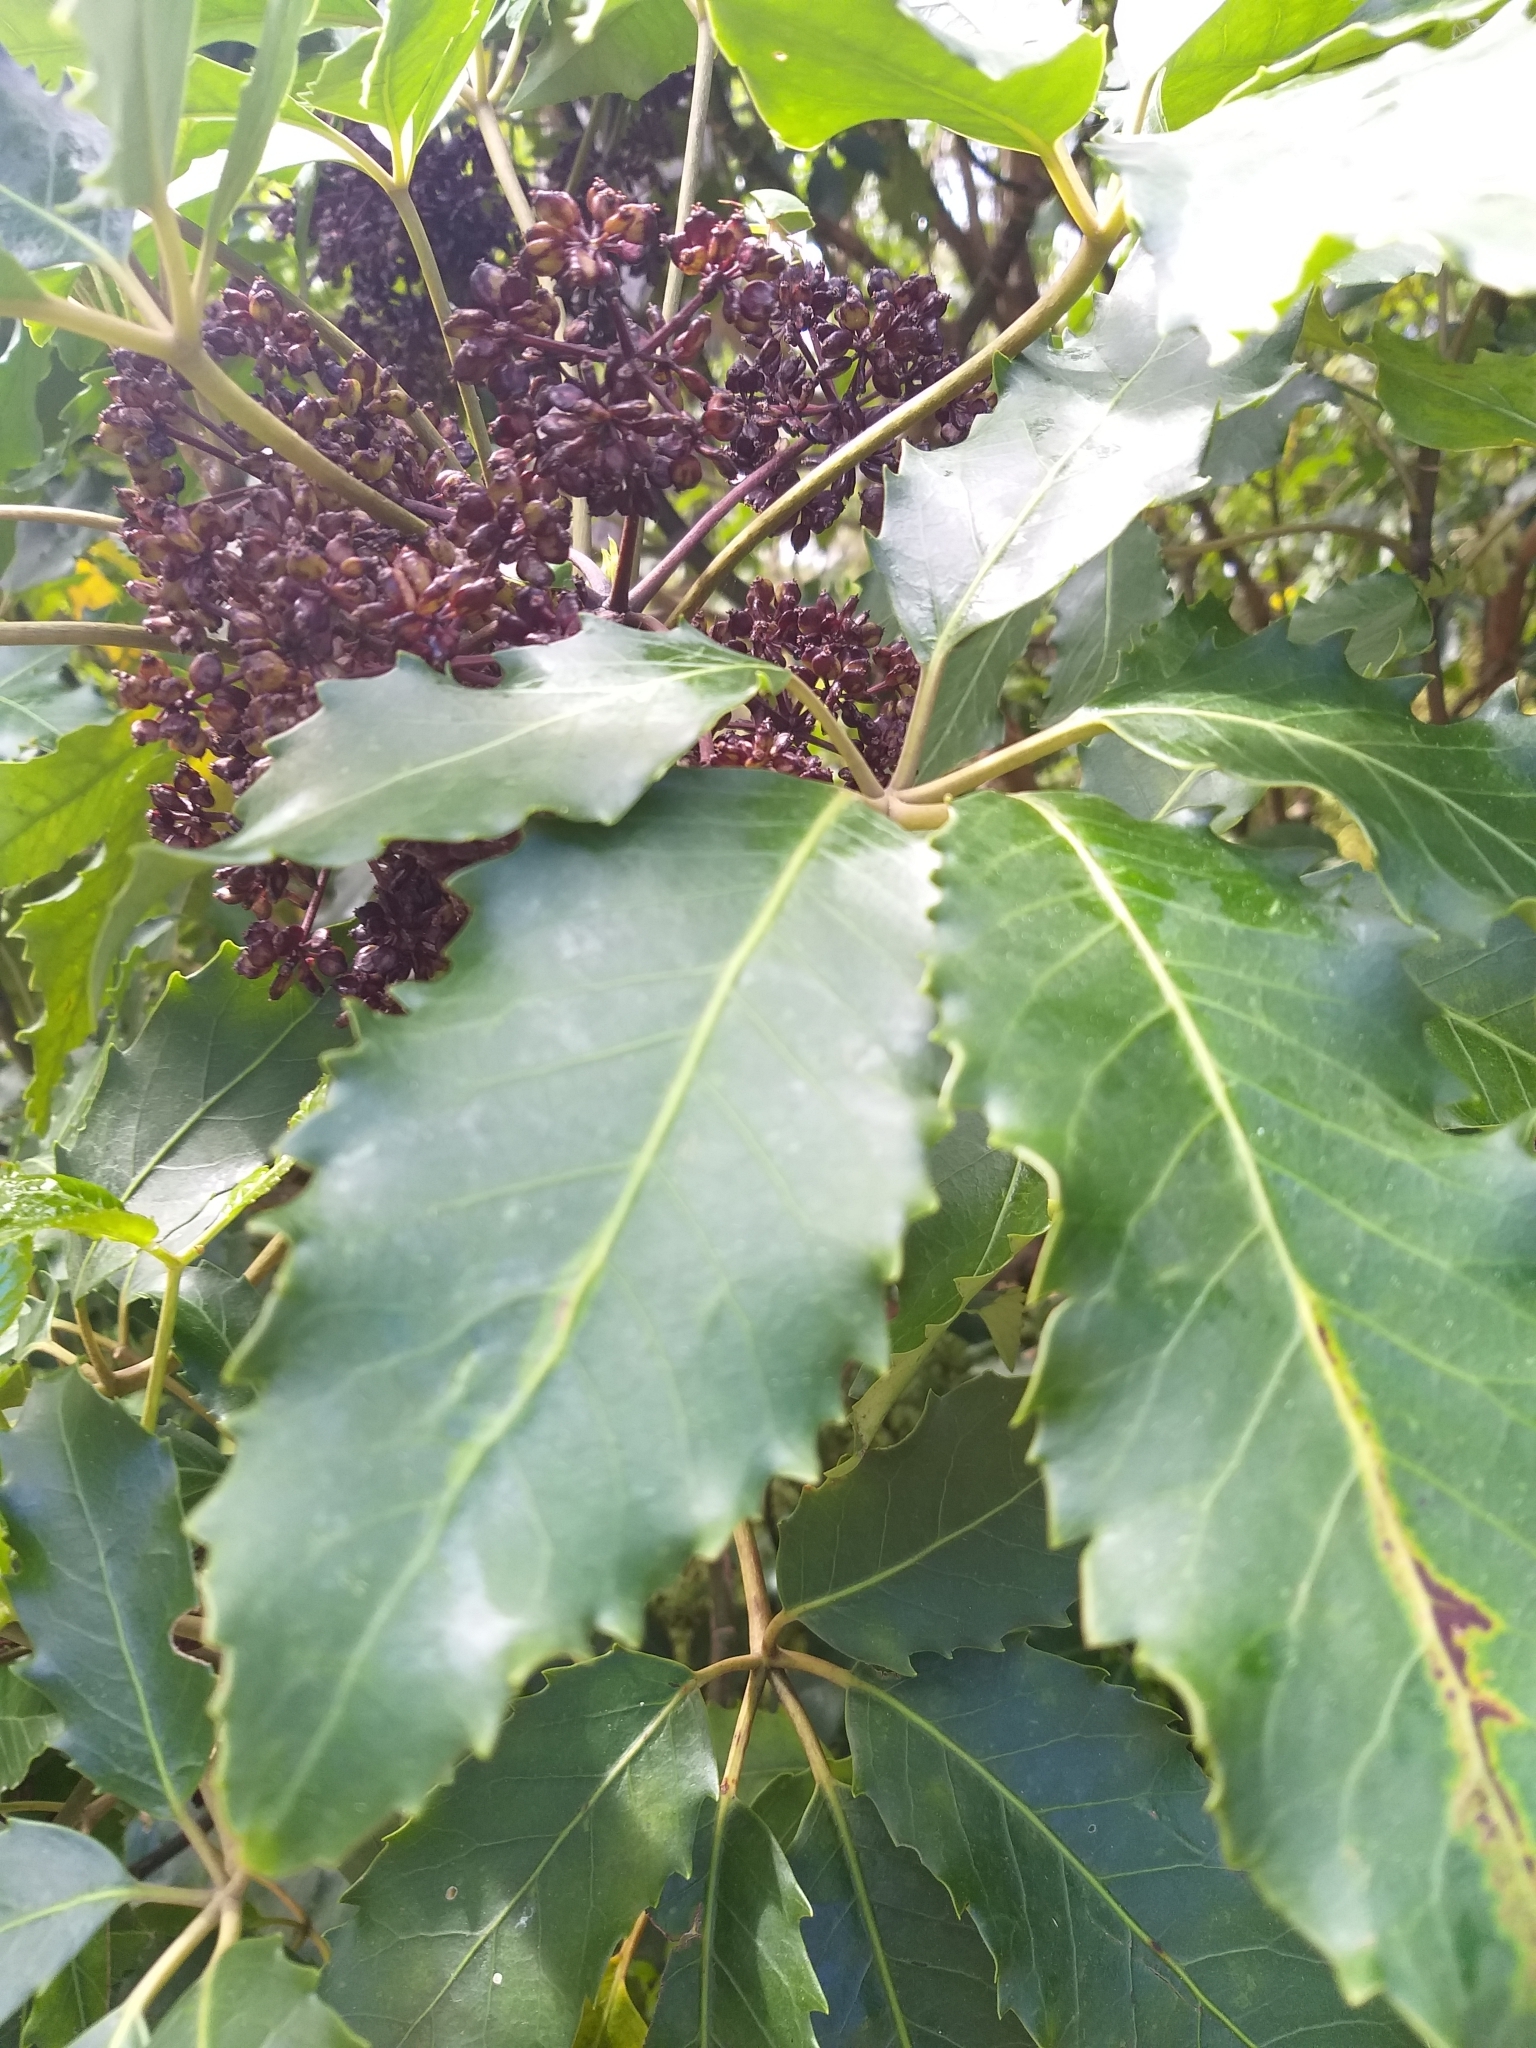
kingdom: Plantae
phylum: Tracheophyta
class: Magnoliopsida
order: Apiales
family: Araliaceae
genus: Neopanax
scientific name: Neopanax arboreus
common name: Five-fingers
